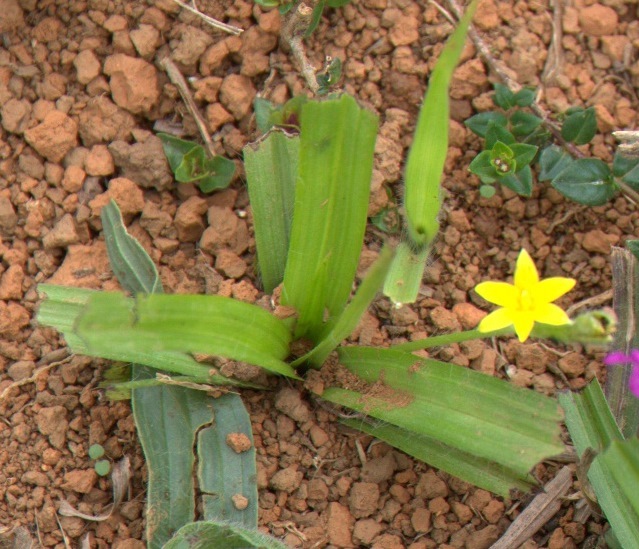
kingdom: Plantae
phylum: Tracheophyta
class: Liliopsida
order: Asparagales
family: Hypoxidaceae
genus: Hypoxis
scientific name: Hypoxis decumbens
